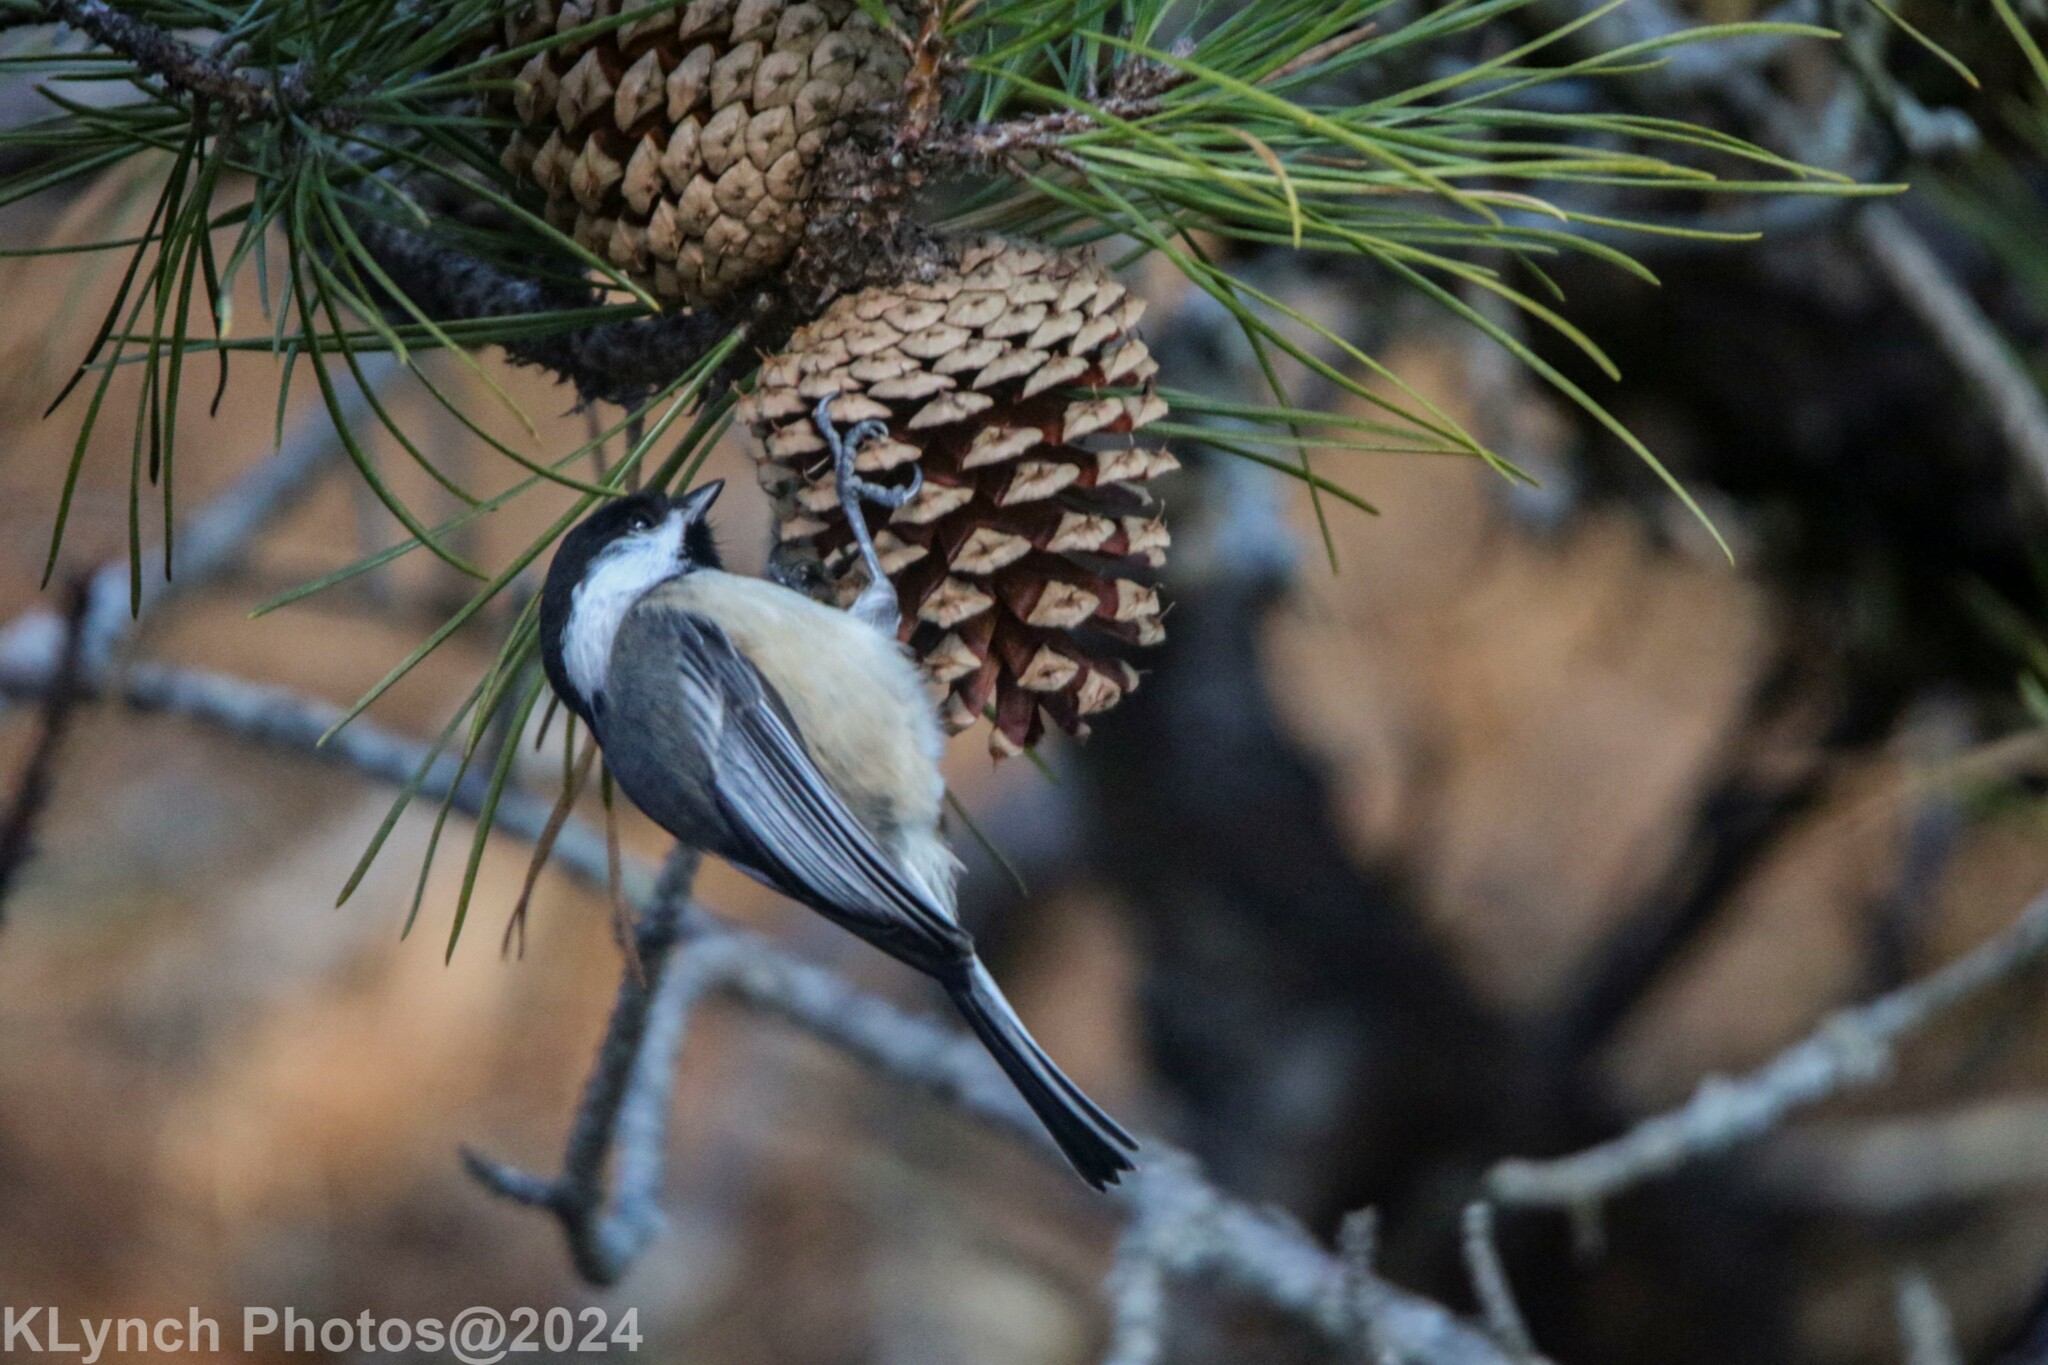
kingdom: Animalia
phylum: Chordata
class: Aves
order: Passeriformes
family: Paridae
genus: Poecile
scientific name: Poecile atricapillus
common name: Black-capped chickadee
